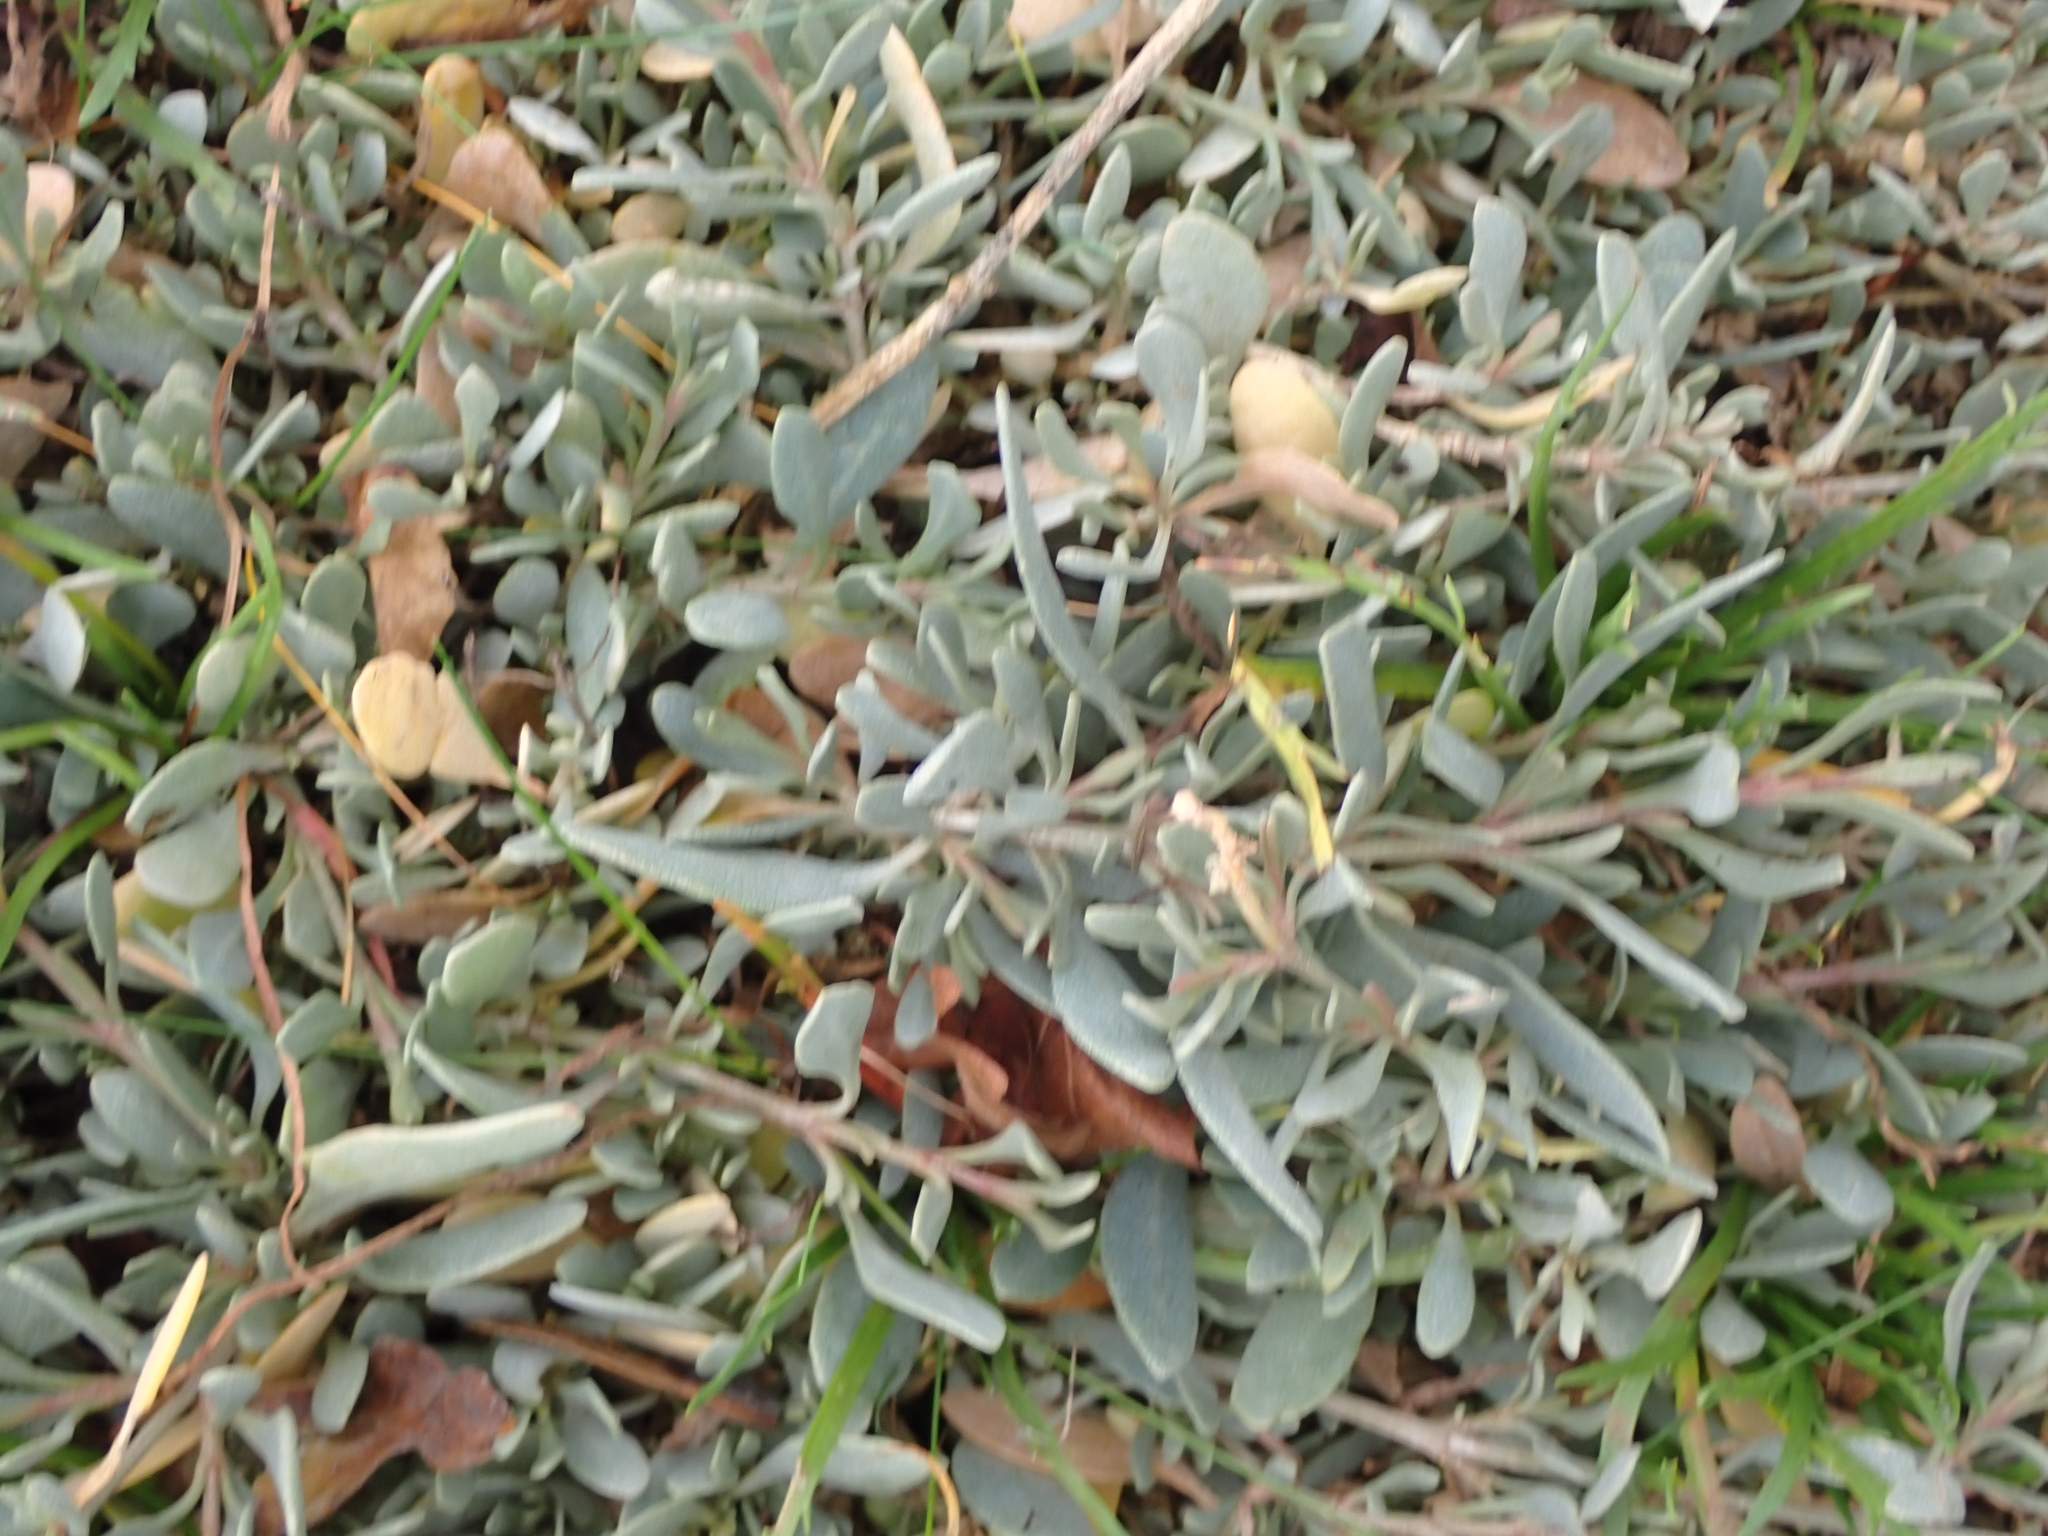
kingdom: Plantae
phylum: Tracheophyta
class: Magnoliopsida
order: Caryophyllales
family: Amaranthaceae
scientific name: Amaranthaceae
